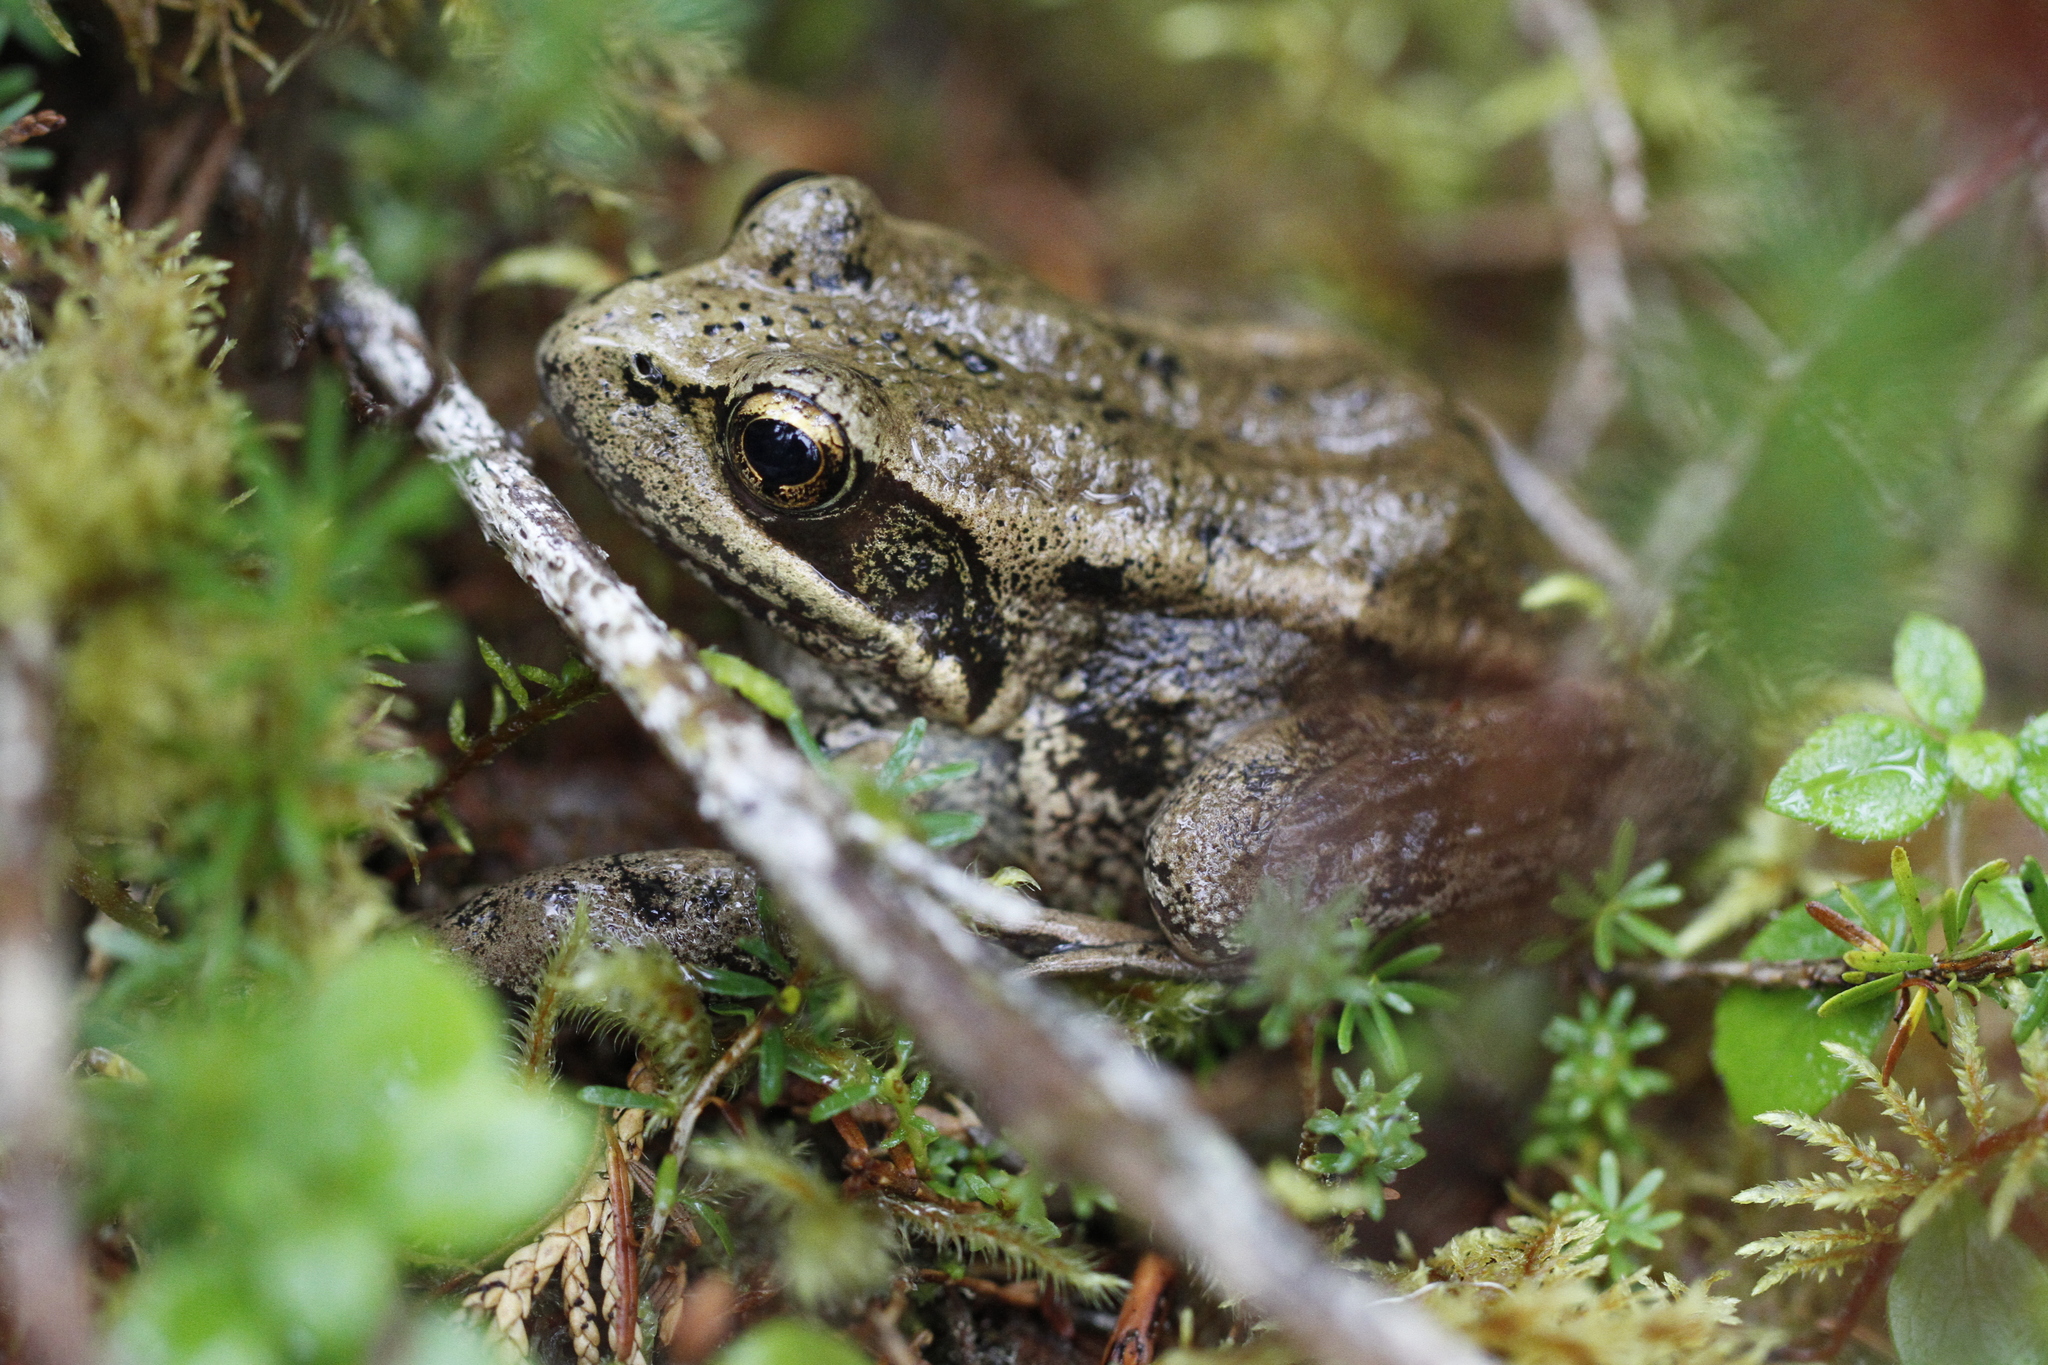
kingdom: Animalia
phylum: Chordata
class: Amphibia
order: Anura
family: Ranidae
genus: Rana
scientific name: Rana aurora
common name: Red-legged frog
